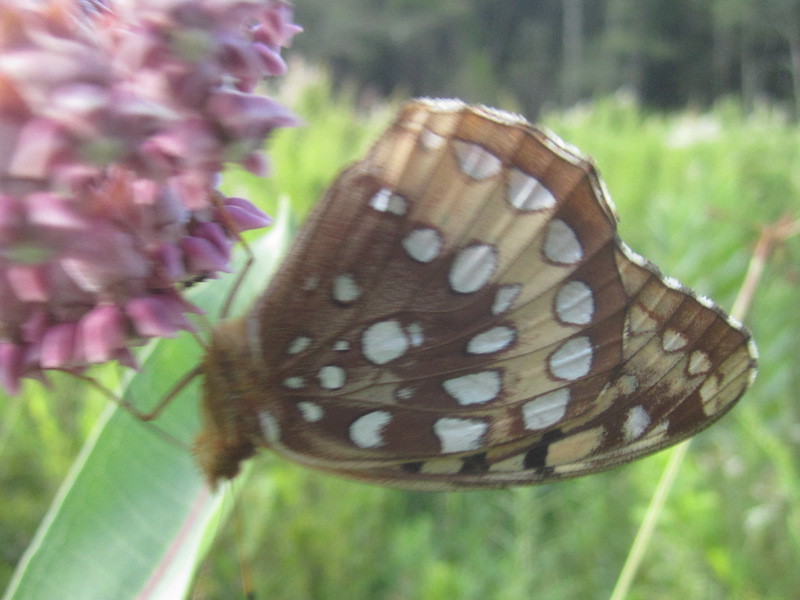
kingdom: Animalia
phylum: Arthropoda
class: Insecta
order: Lepidoptera
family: Nymphalidae
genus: Speyeria
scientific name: Speyeria cybele
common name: Great spangled fritillary
